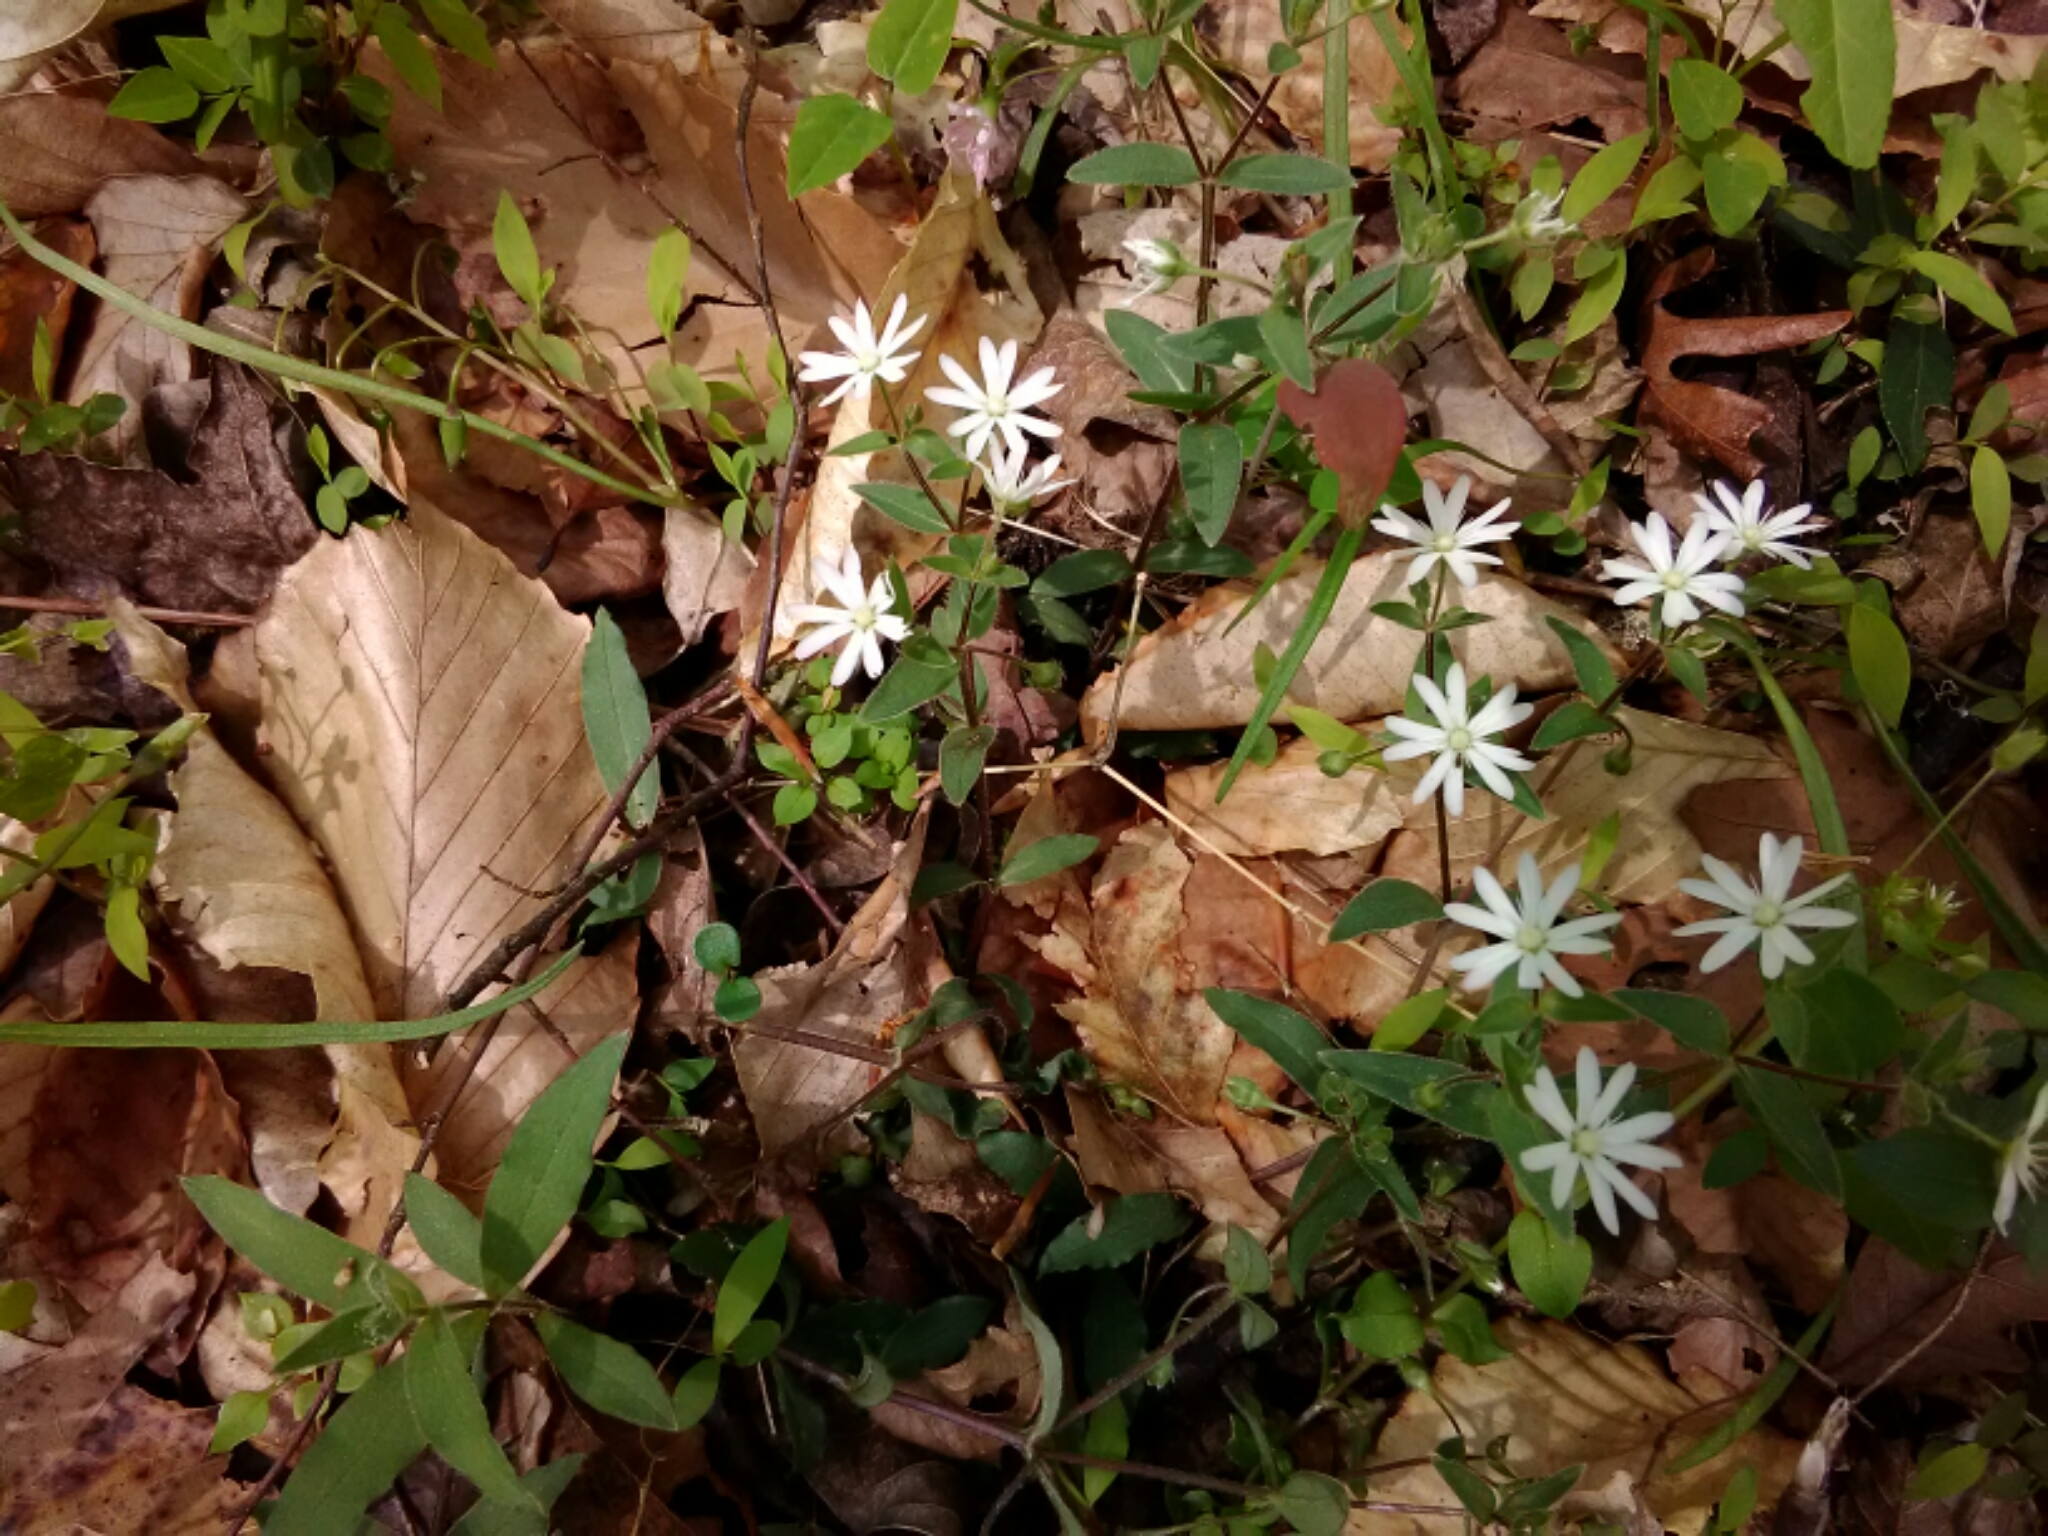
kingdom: Plantae
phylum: Tracheophyta
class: Magnoliopsida
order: Caryophyllales
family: Caryophyllaceae
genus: Stellaria
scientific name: Stellaria pubera
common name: Star chickweed
